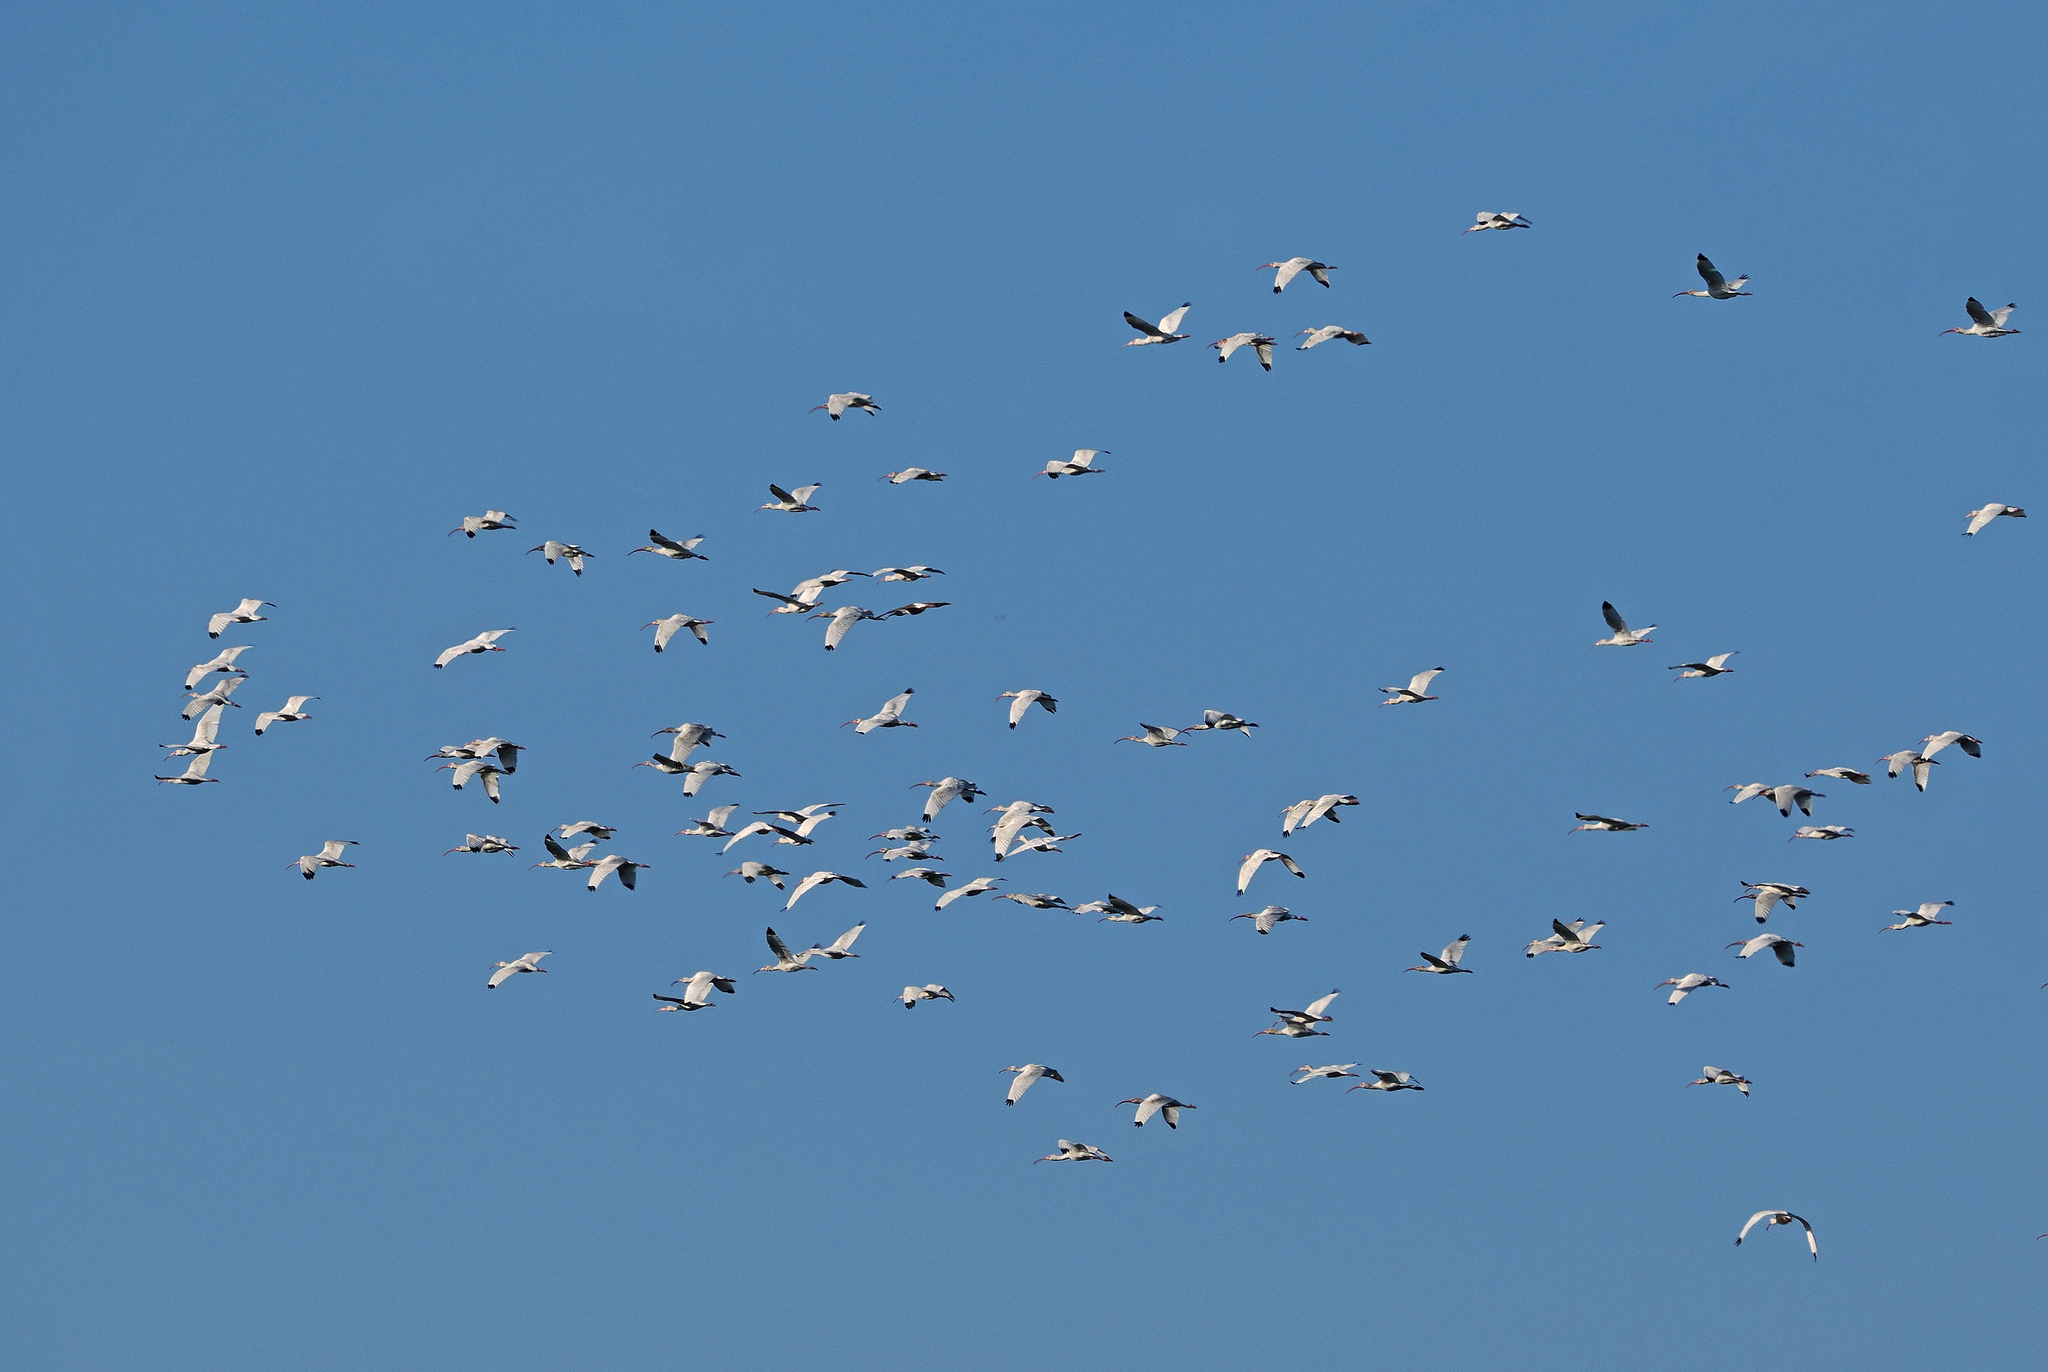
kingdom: Animalia
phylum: Chordata
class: Aves
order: Pelecaniformes
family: Threskiornithidae
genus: Eudocimus
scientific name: Eudocimus albus
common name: White ibis
